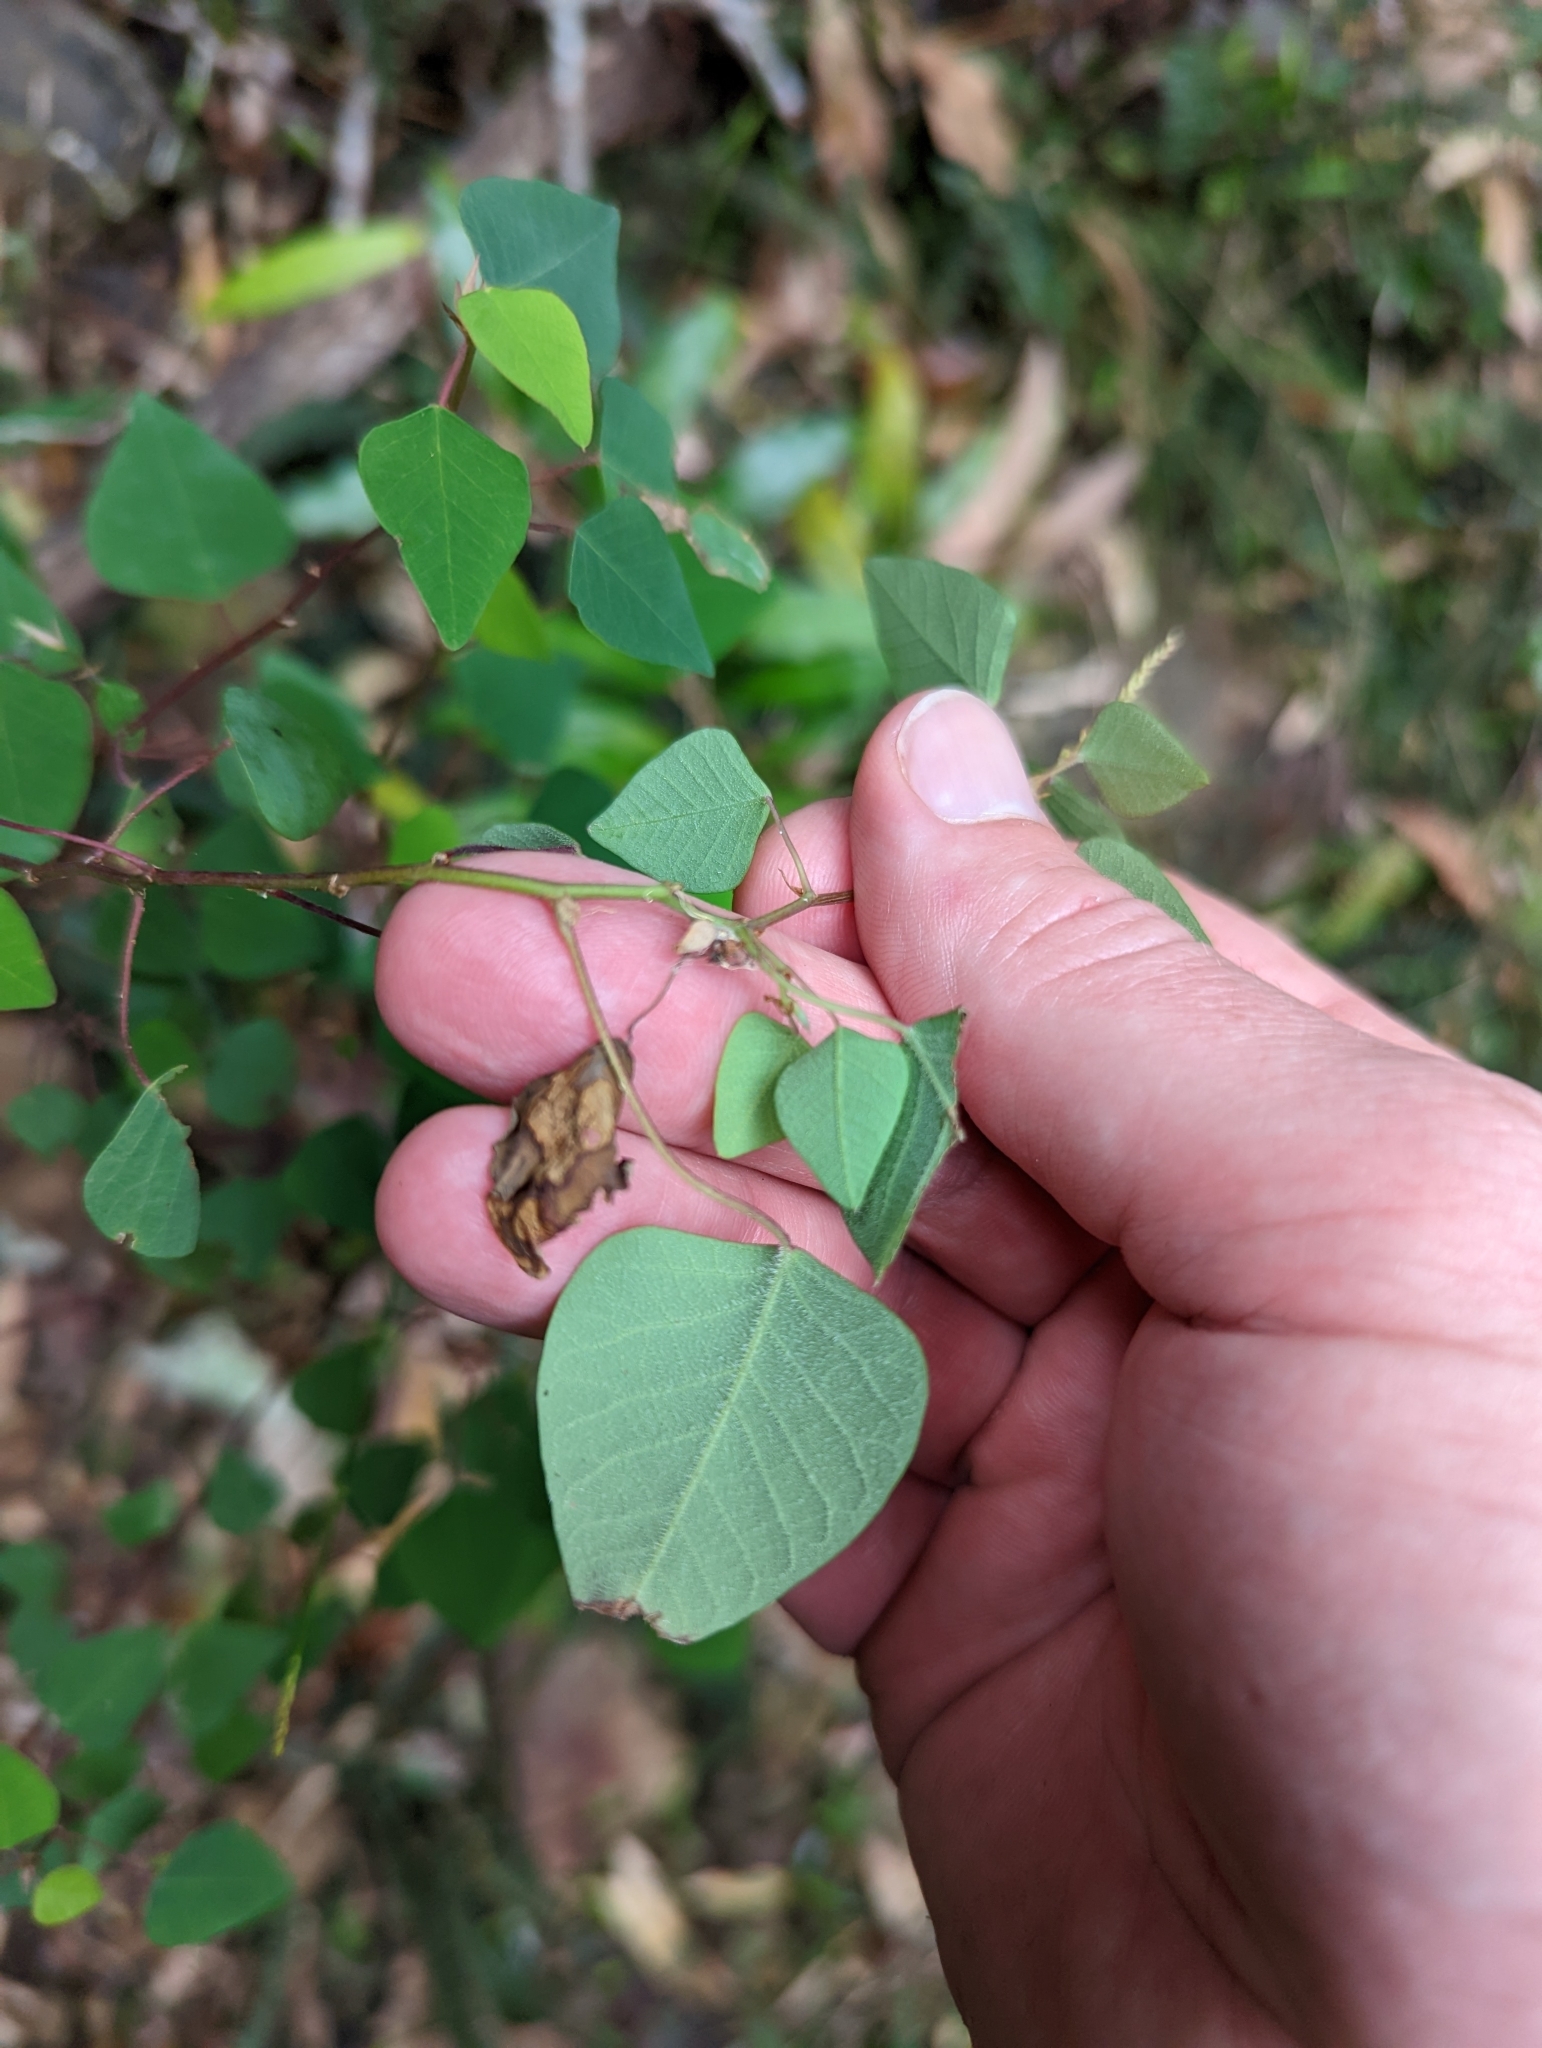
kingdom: Plantae
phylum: Tracheophyta
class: Magnoliopsida
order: Malpighiales
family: Euphorbiaceae
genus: Homalanthus
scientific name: Homalanthus stillingifolius
